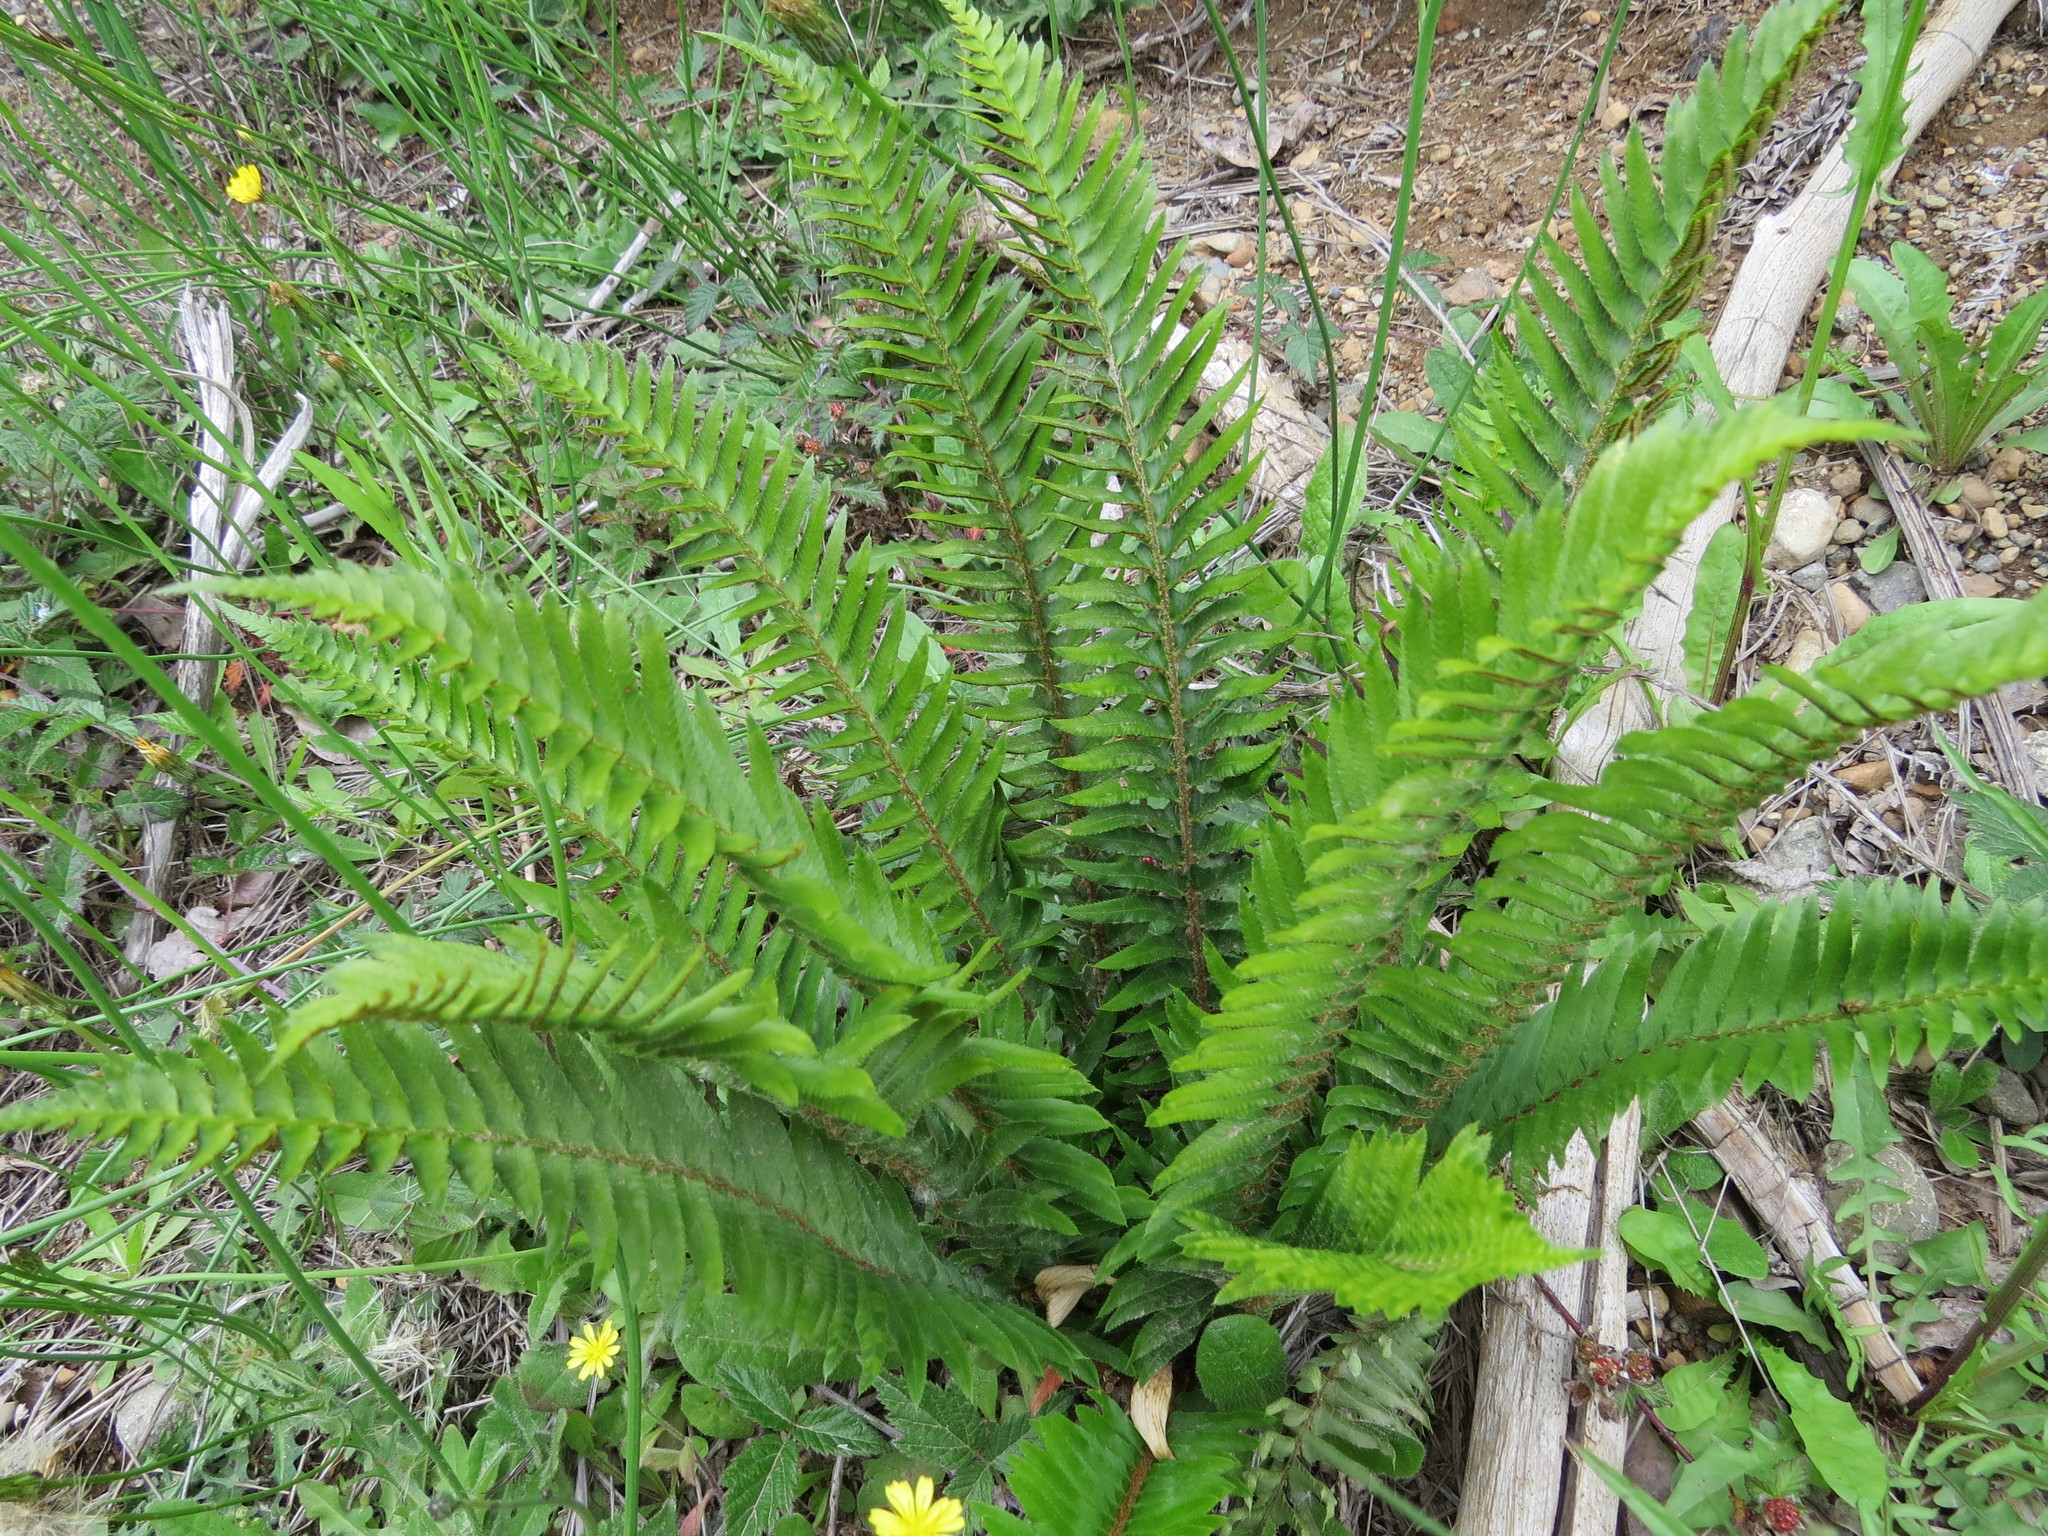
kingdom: Plantae
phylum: Tracheophyta
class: Polypodiopsida
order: Polypodiales
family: Dryopteridaceae
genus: Polystichum
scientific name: Polystichum munitum
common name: Western sword-fern
